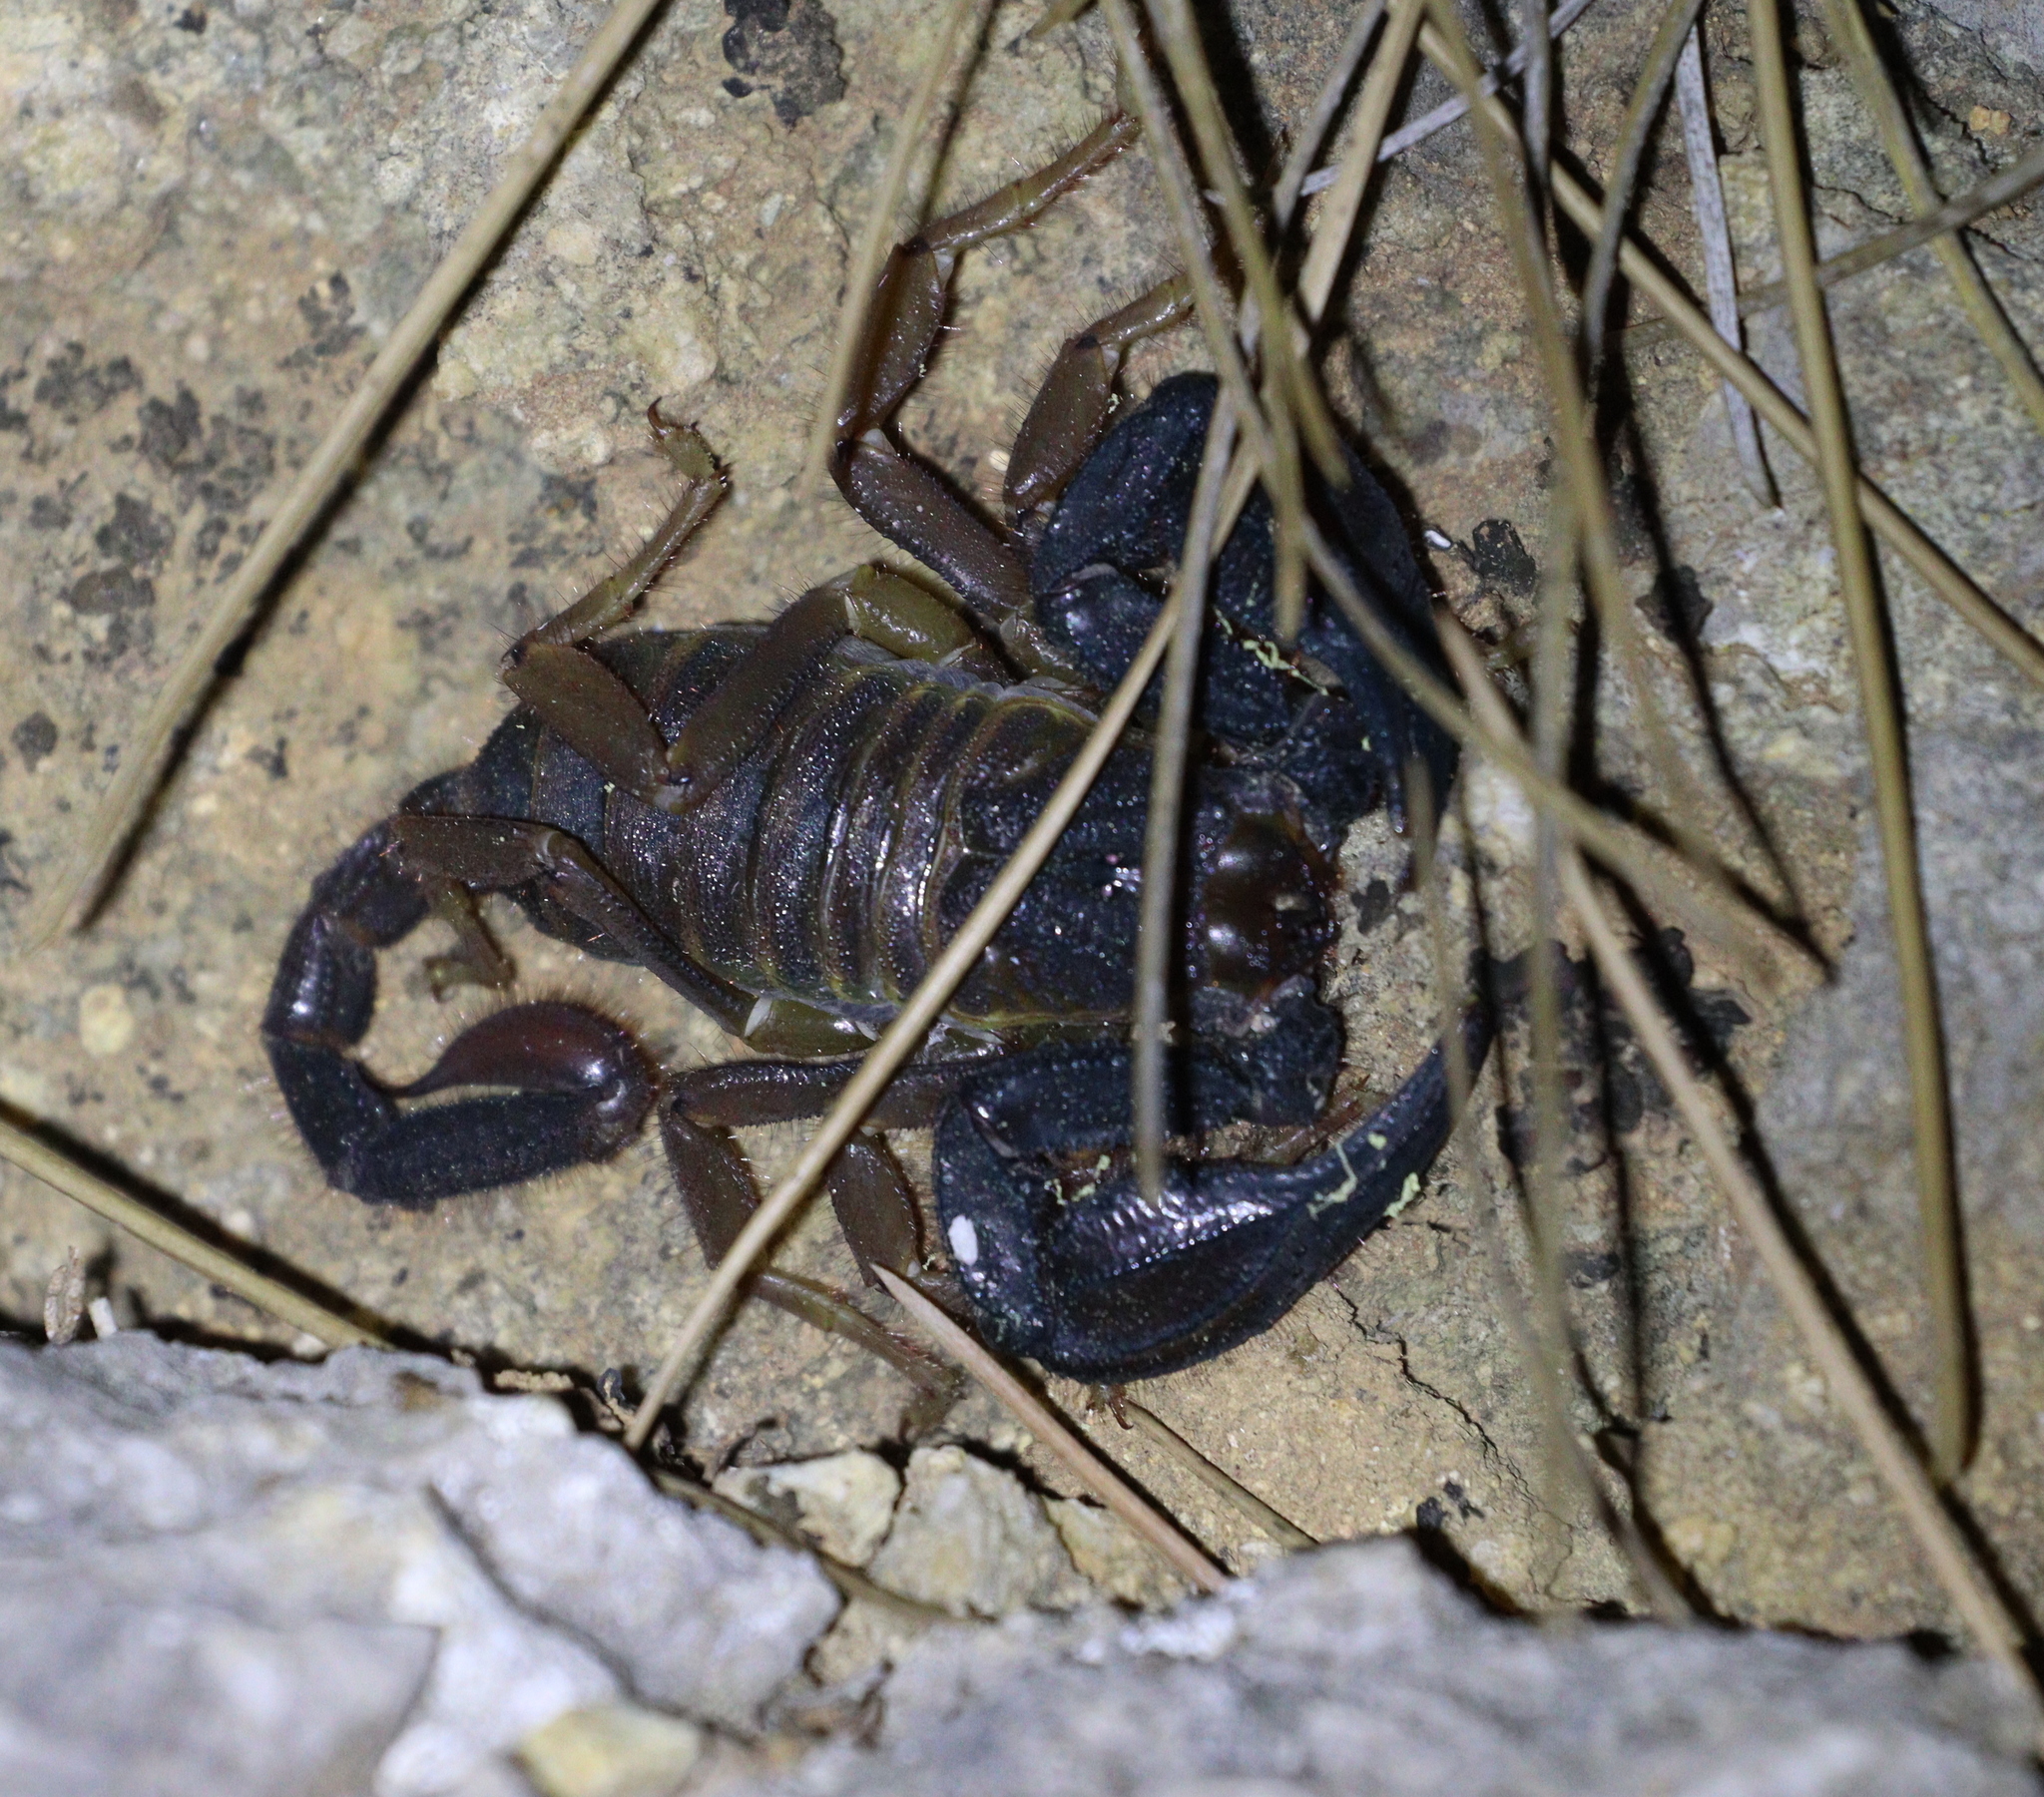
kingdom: Animalia
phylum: Arthropoda
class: Arachnida
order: Scorpiones
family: Iuridae
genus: Anatoliurus
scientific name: Anatoliurus kraepelini
